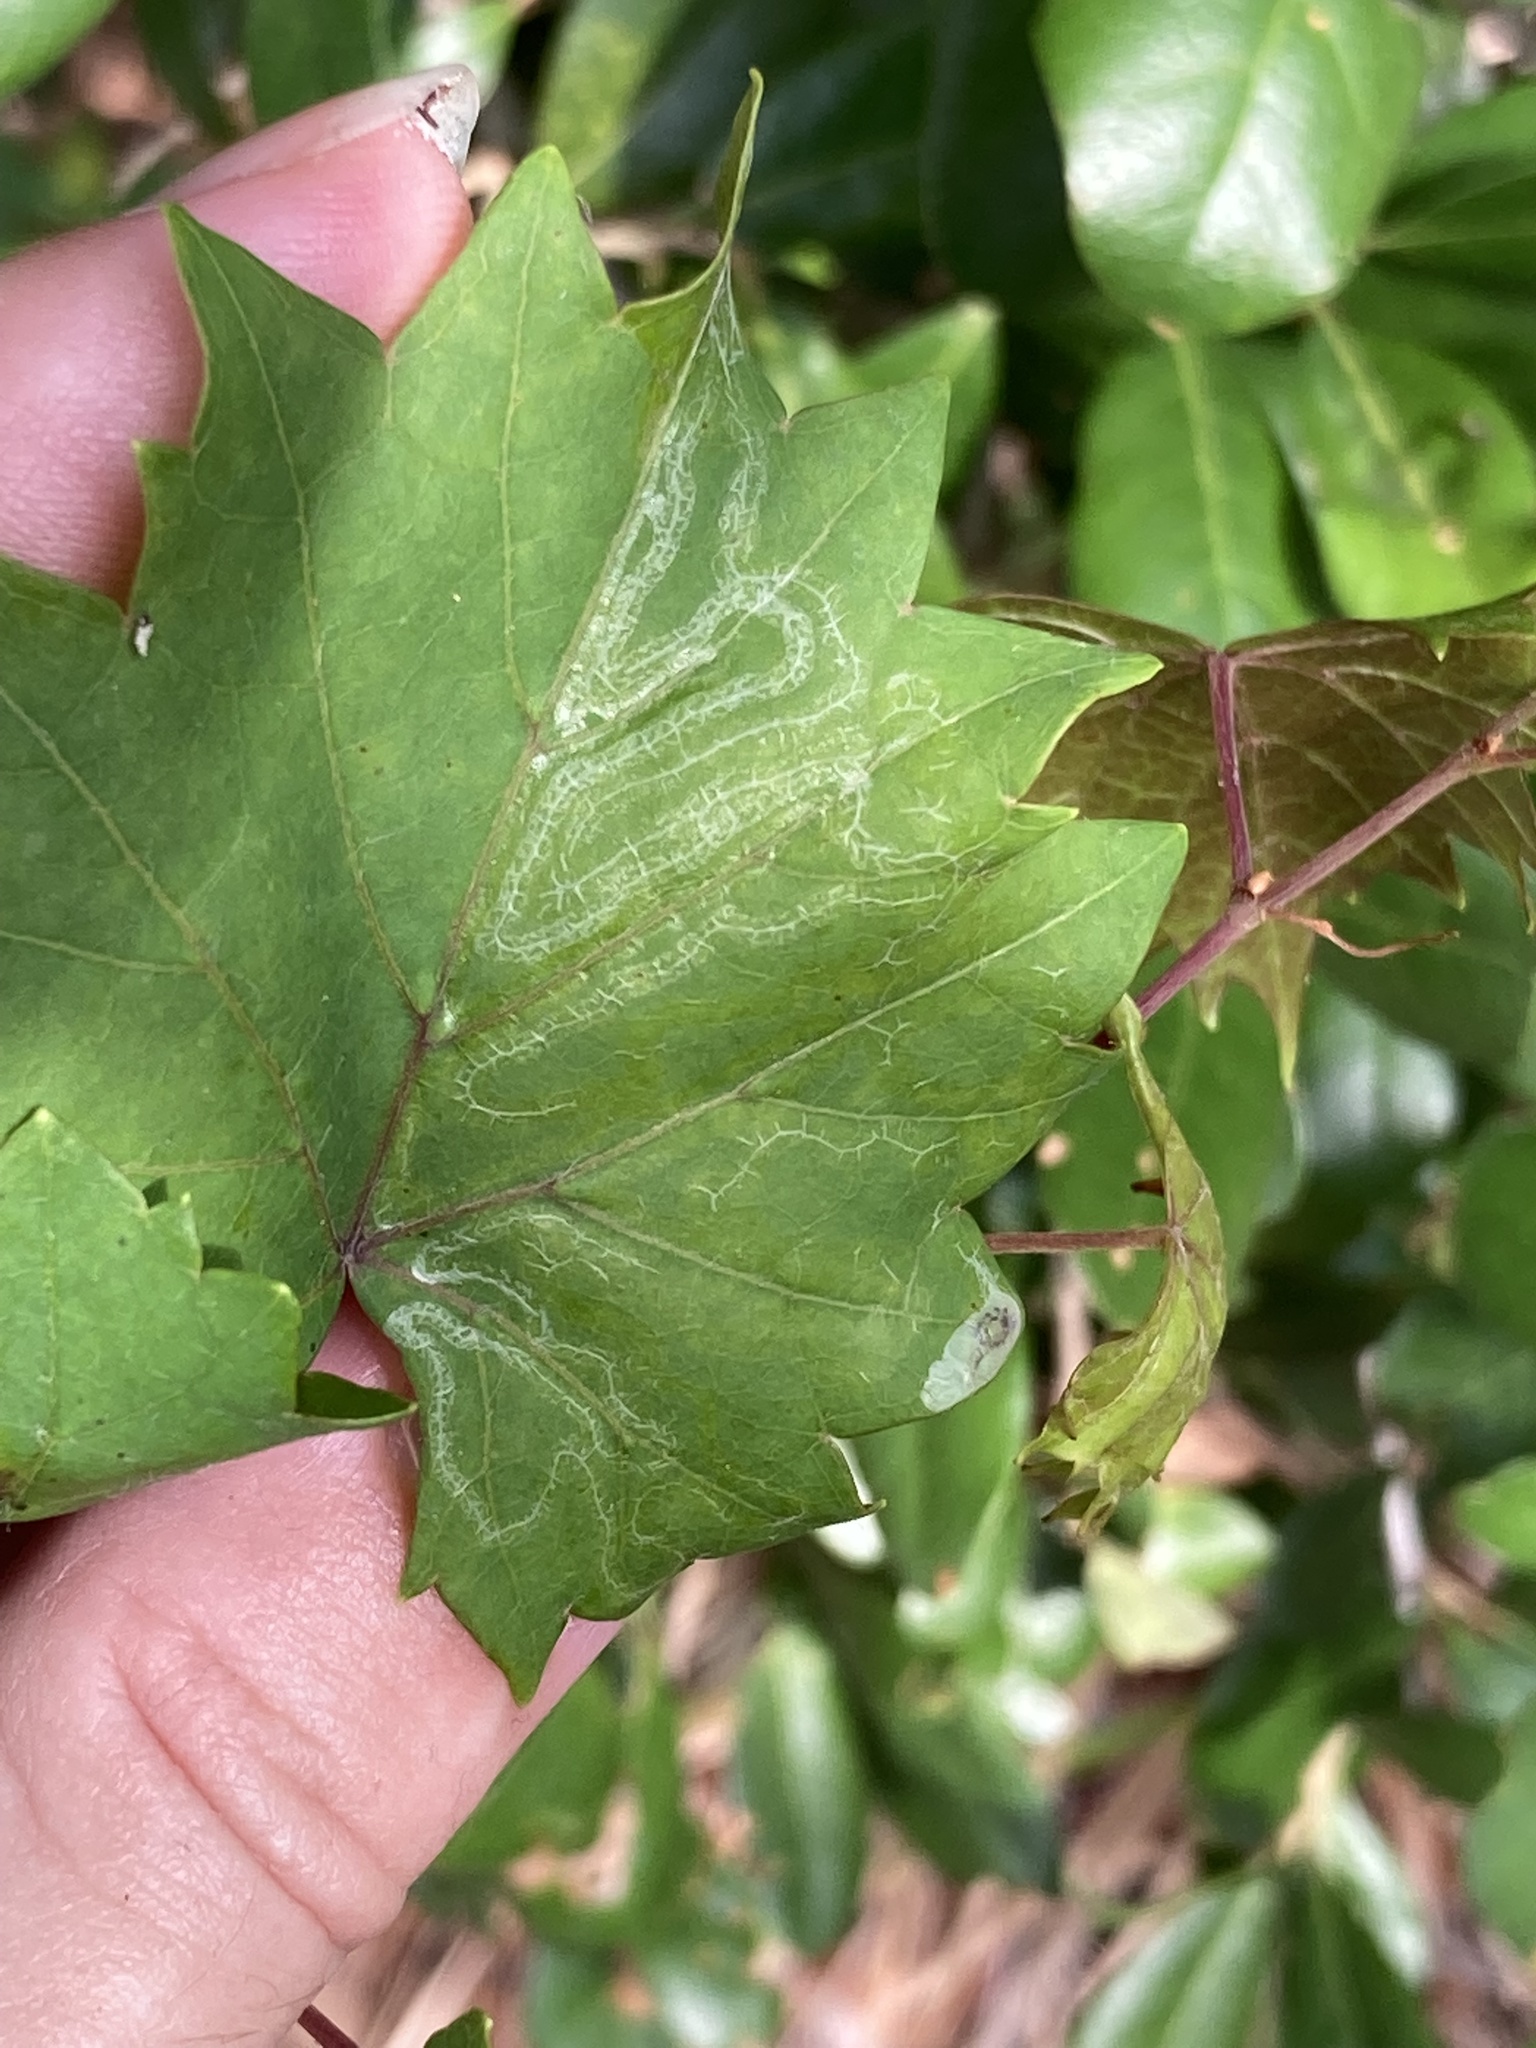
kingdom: Animalia
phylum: Arthropoda
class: Insecta
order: Lepidoptera
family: Gracillariidae
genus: Phyllocnistis
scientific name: Phyllocnistis vitegenella
